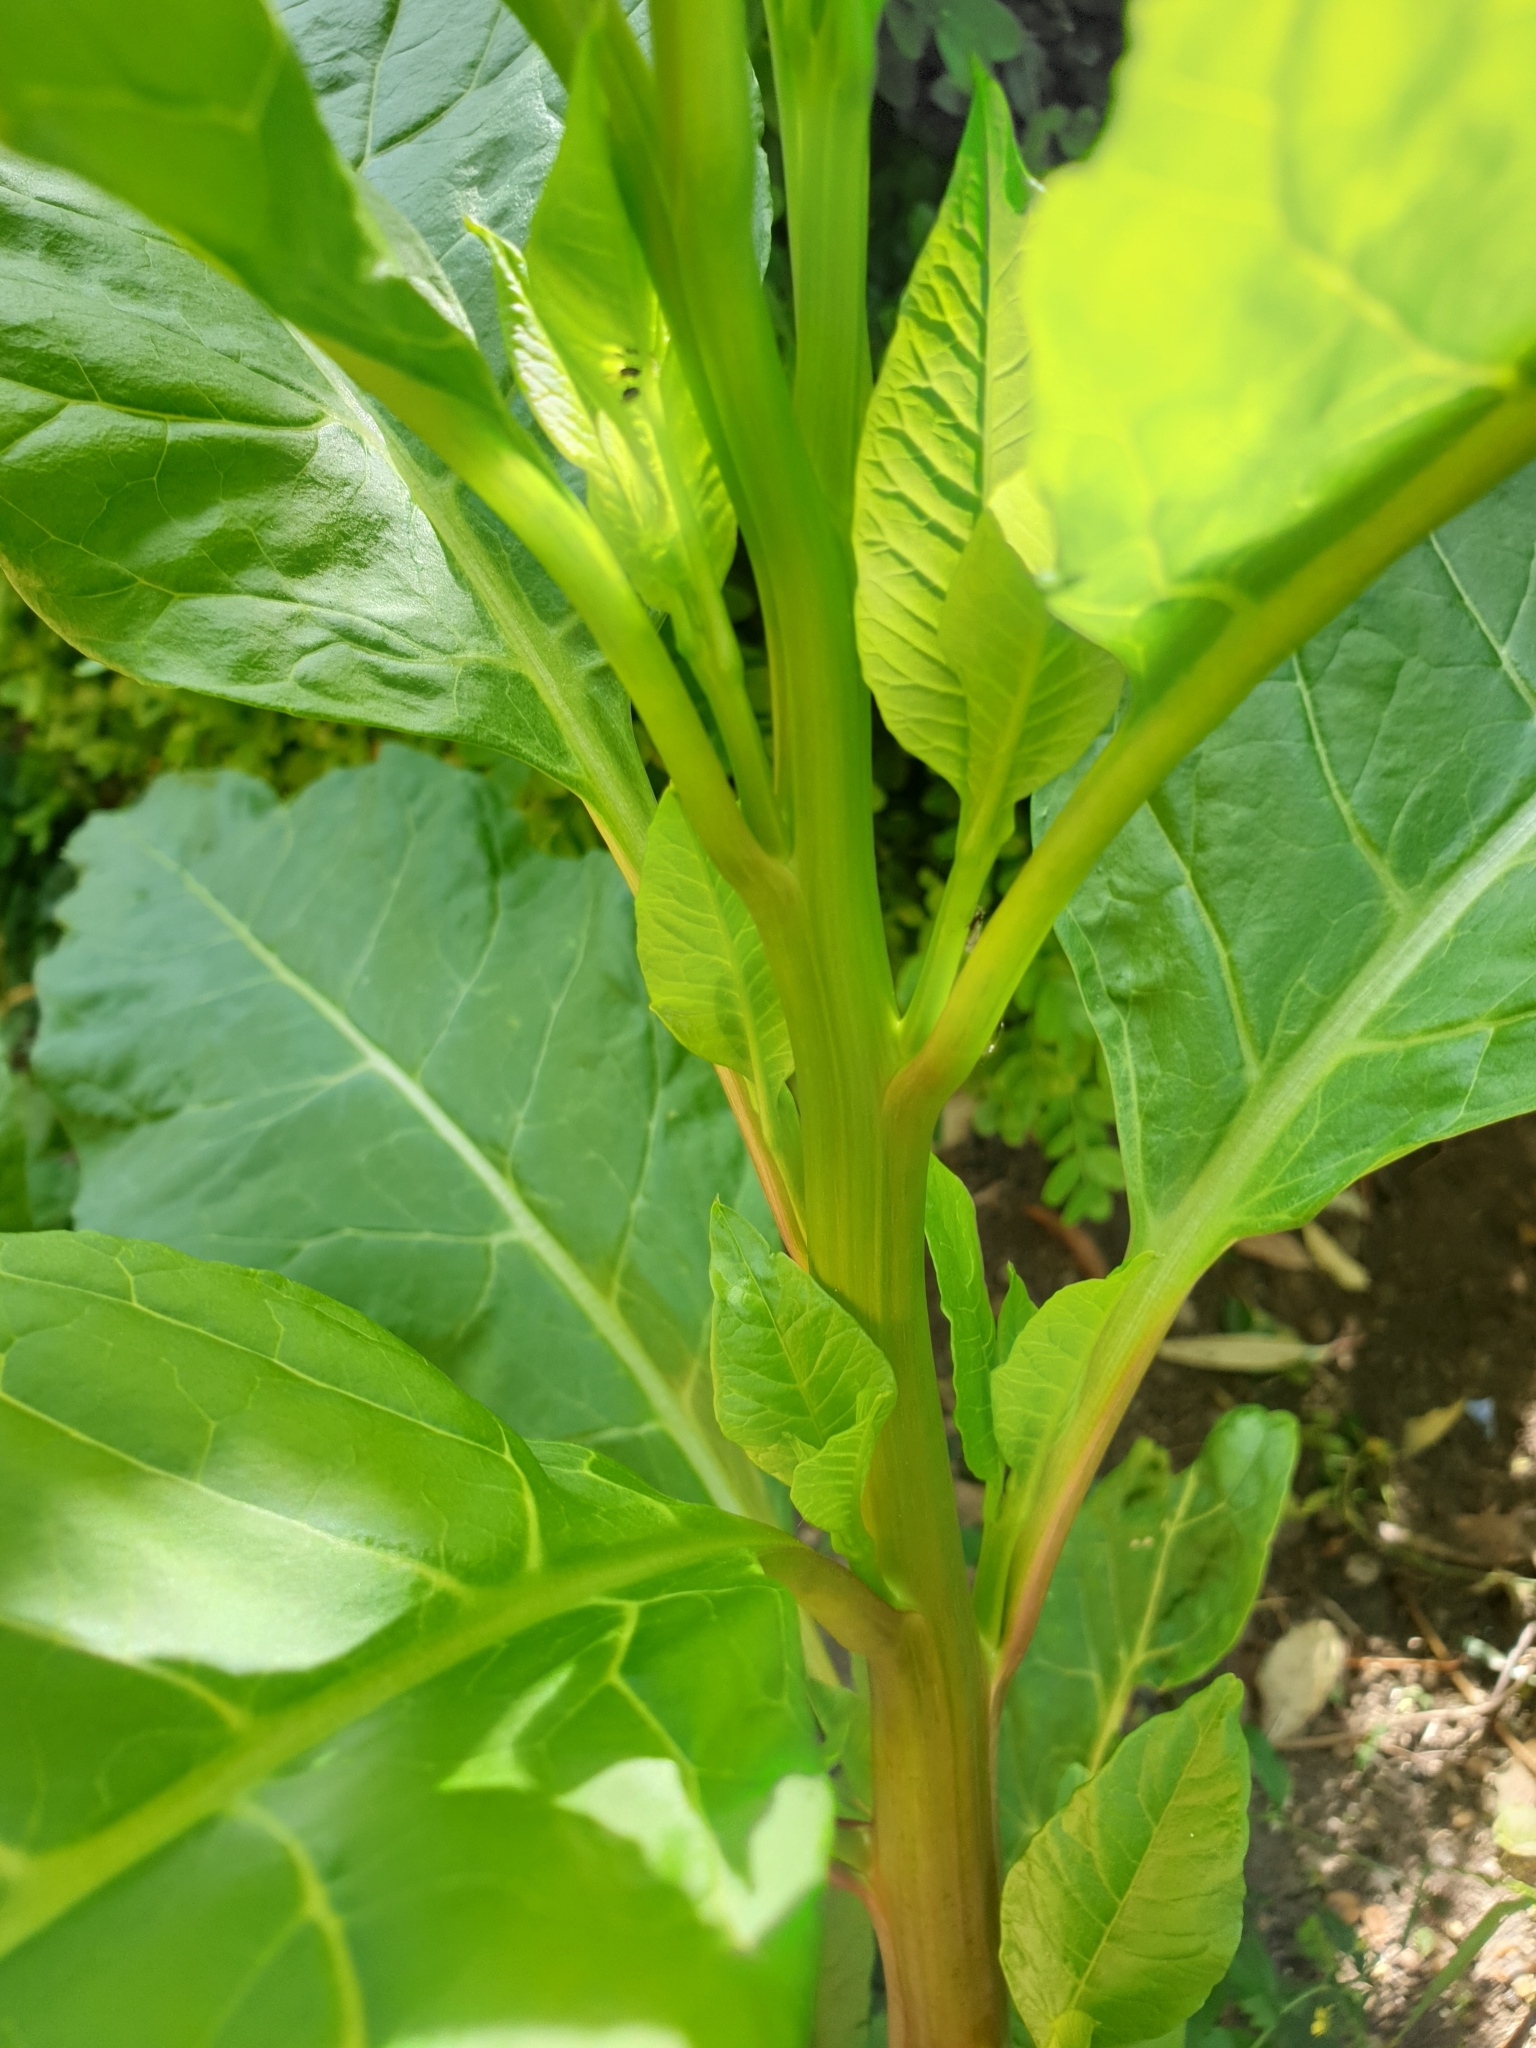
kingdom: Plantae
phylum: Tracheophyta
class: Magnoliopsida
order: Caryophyllales
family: Phytolaccaceae
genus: Phytolacca
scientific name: Phytolacca americana
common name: American pokeweed
